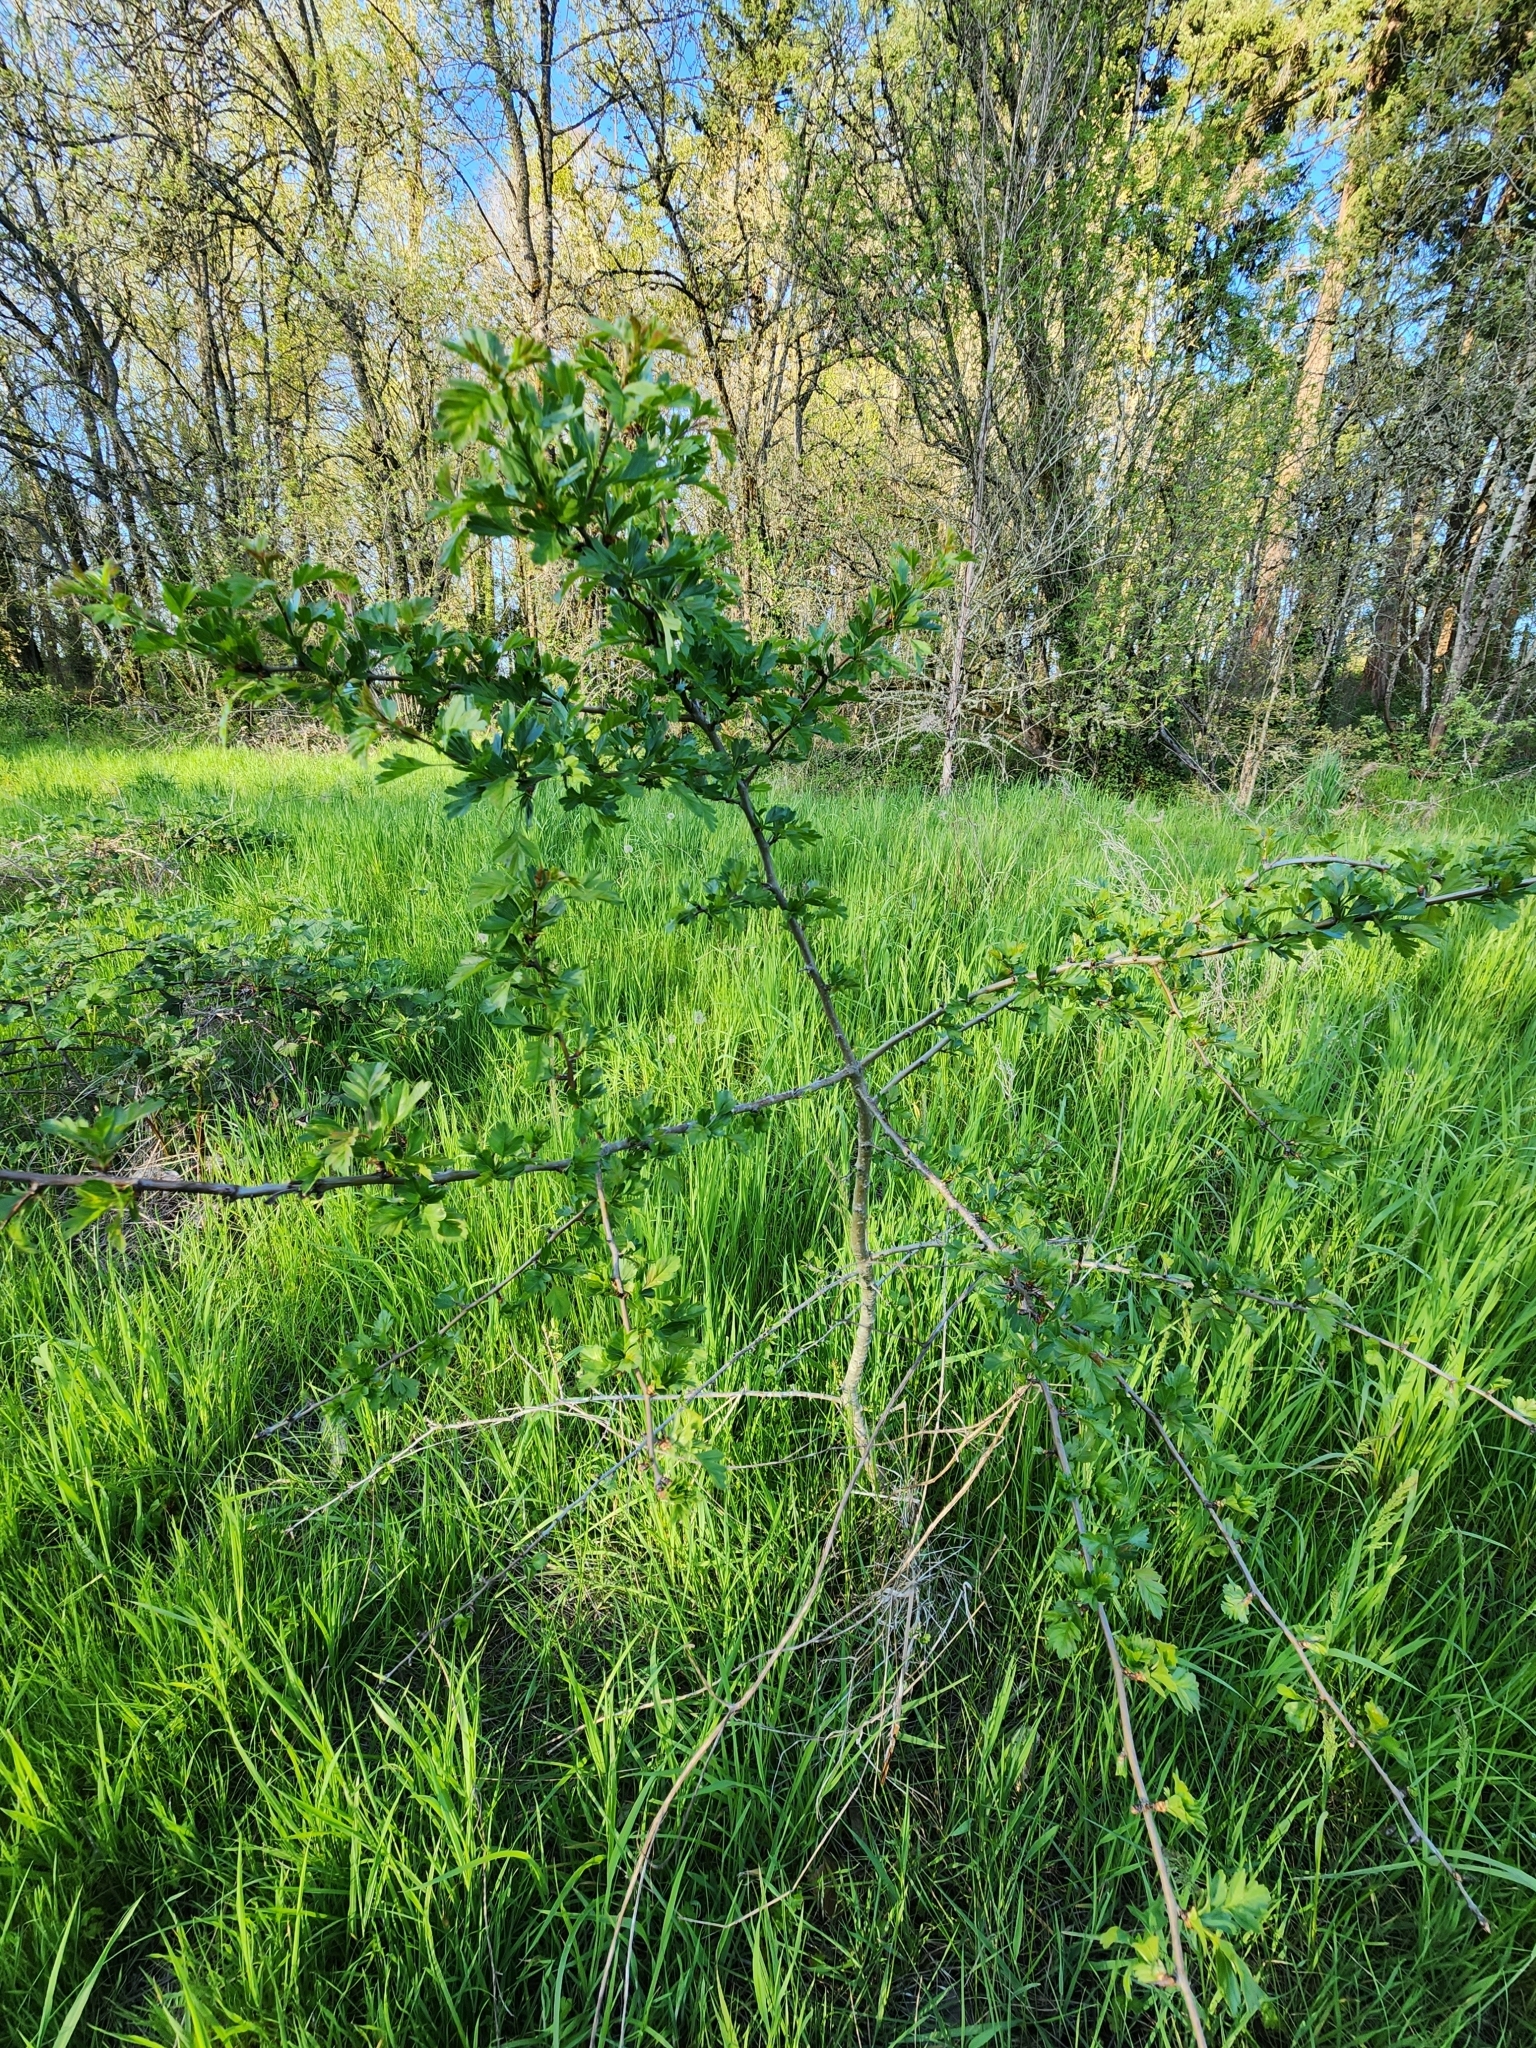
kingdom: Plantae
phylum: Tracheophyta
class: Magnoliopsida
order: Rosales
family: Rosaceae
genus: Crataegus
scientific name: Crataegus monogyna
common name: Hawthorn
